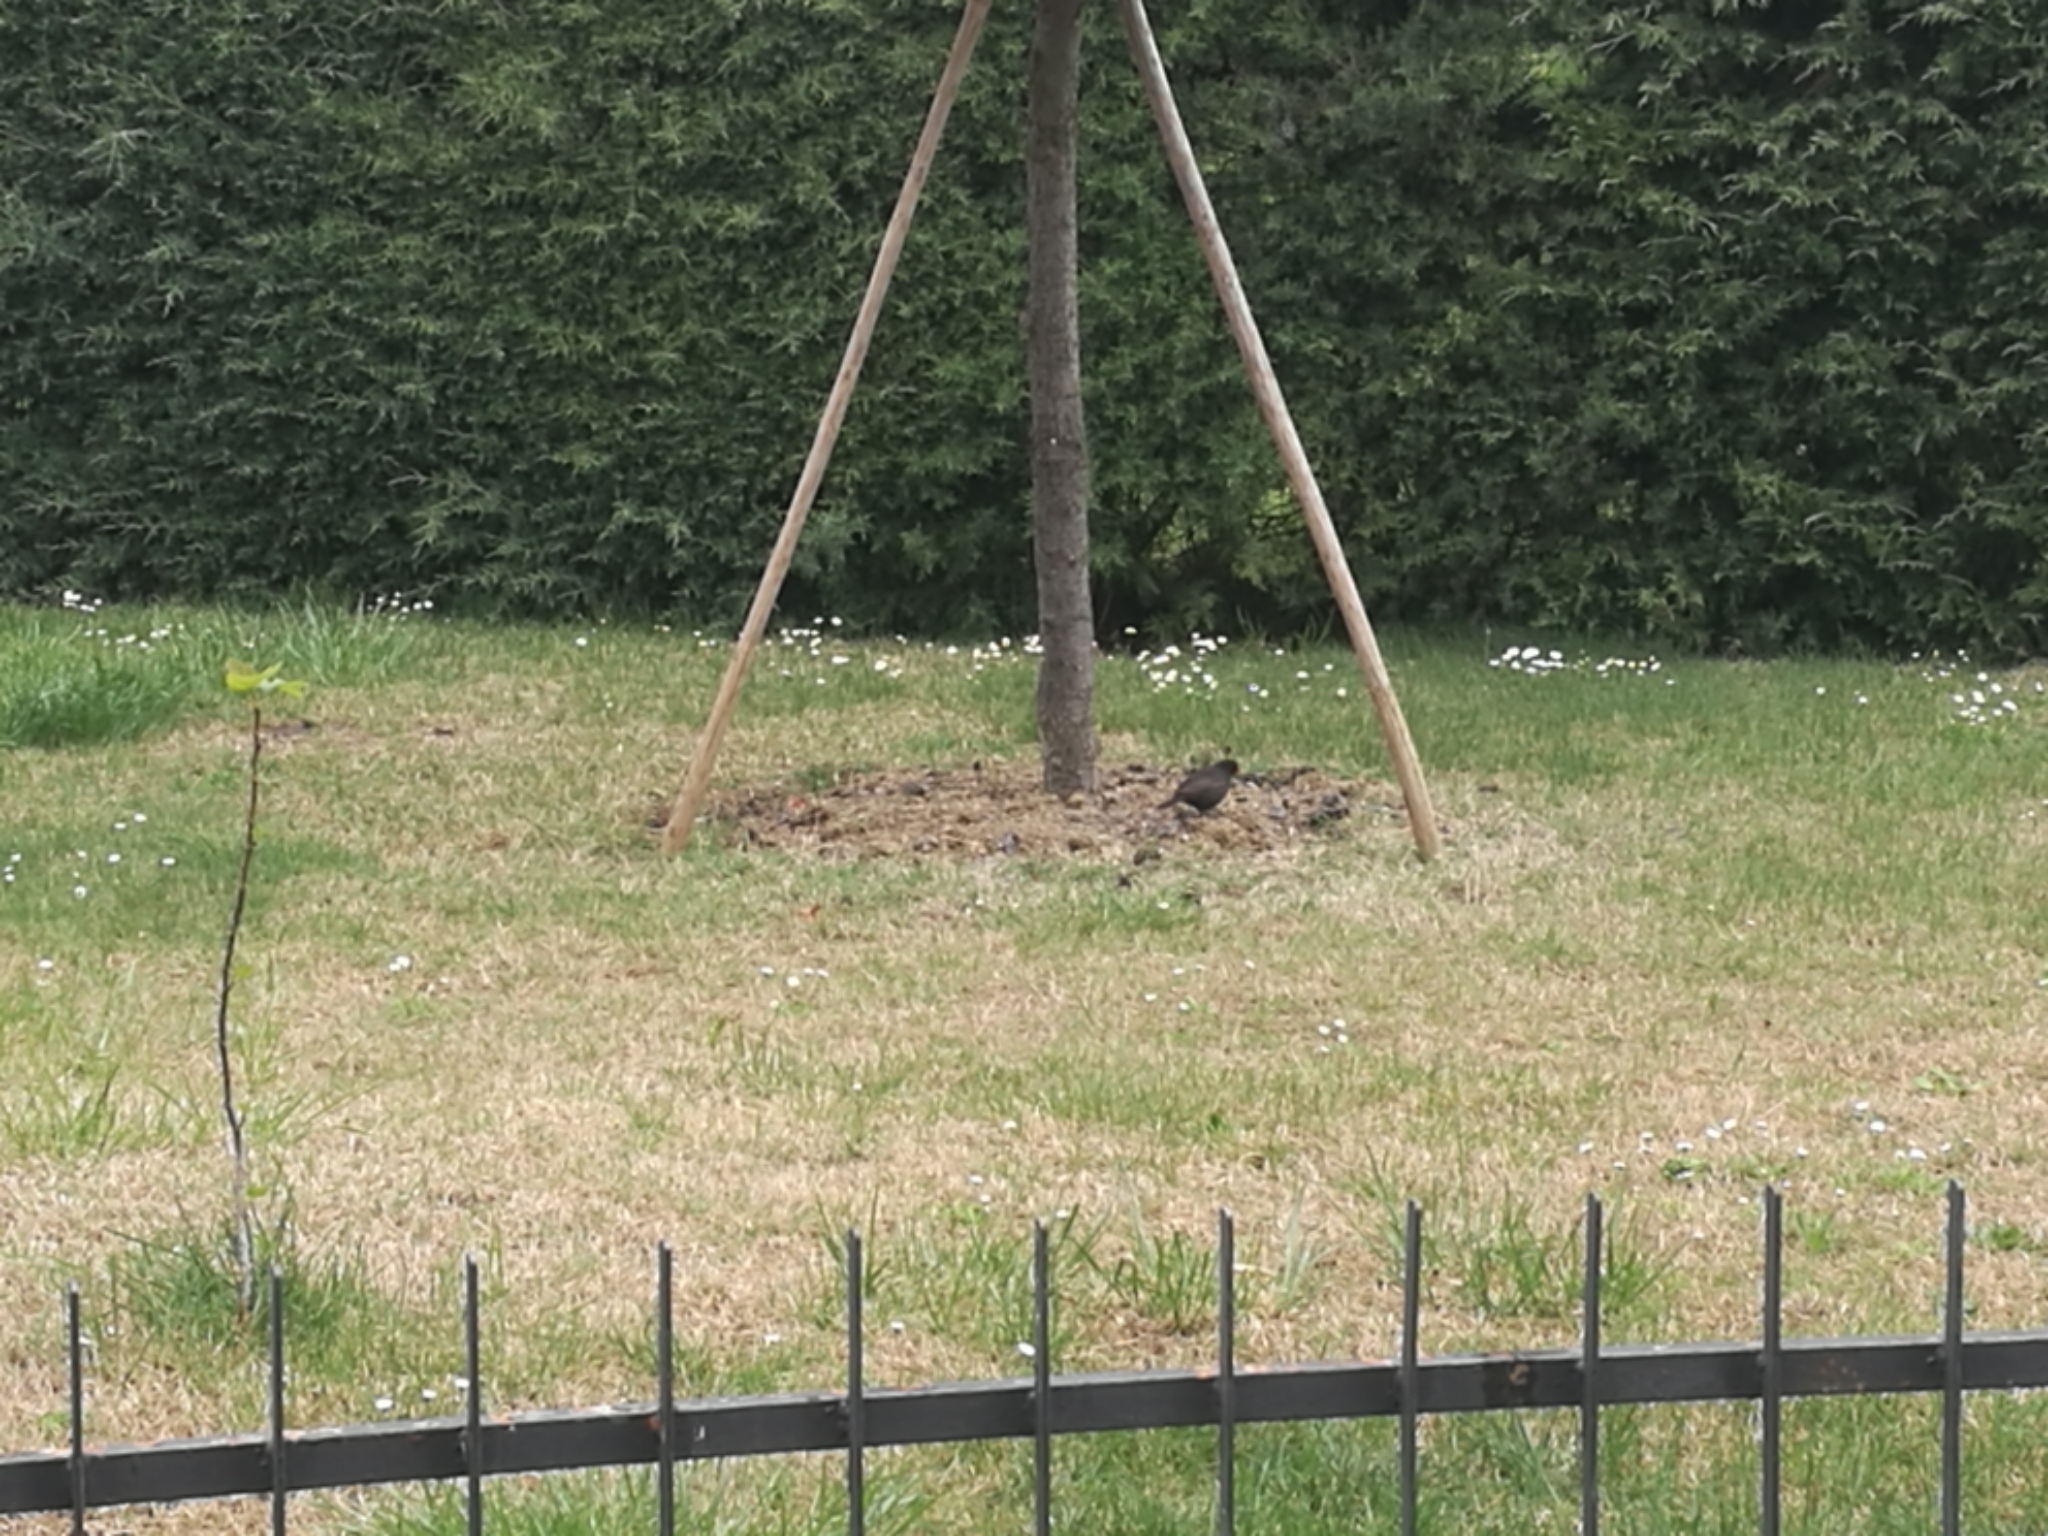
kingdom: Animalia
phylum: Chordata
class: Aves
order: Passeriformes
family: Turdidae
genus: Turdus
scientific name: Turdus merula
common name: Common blackbird
